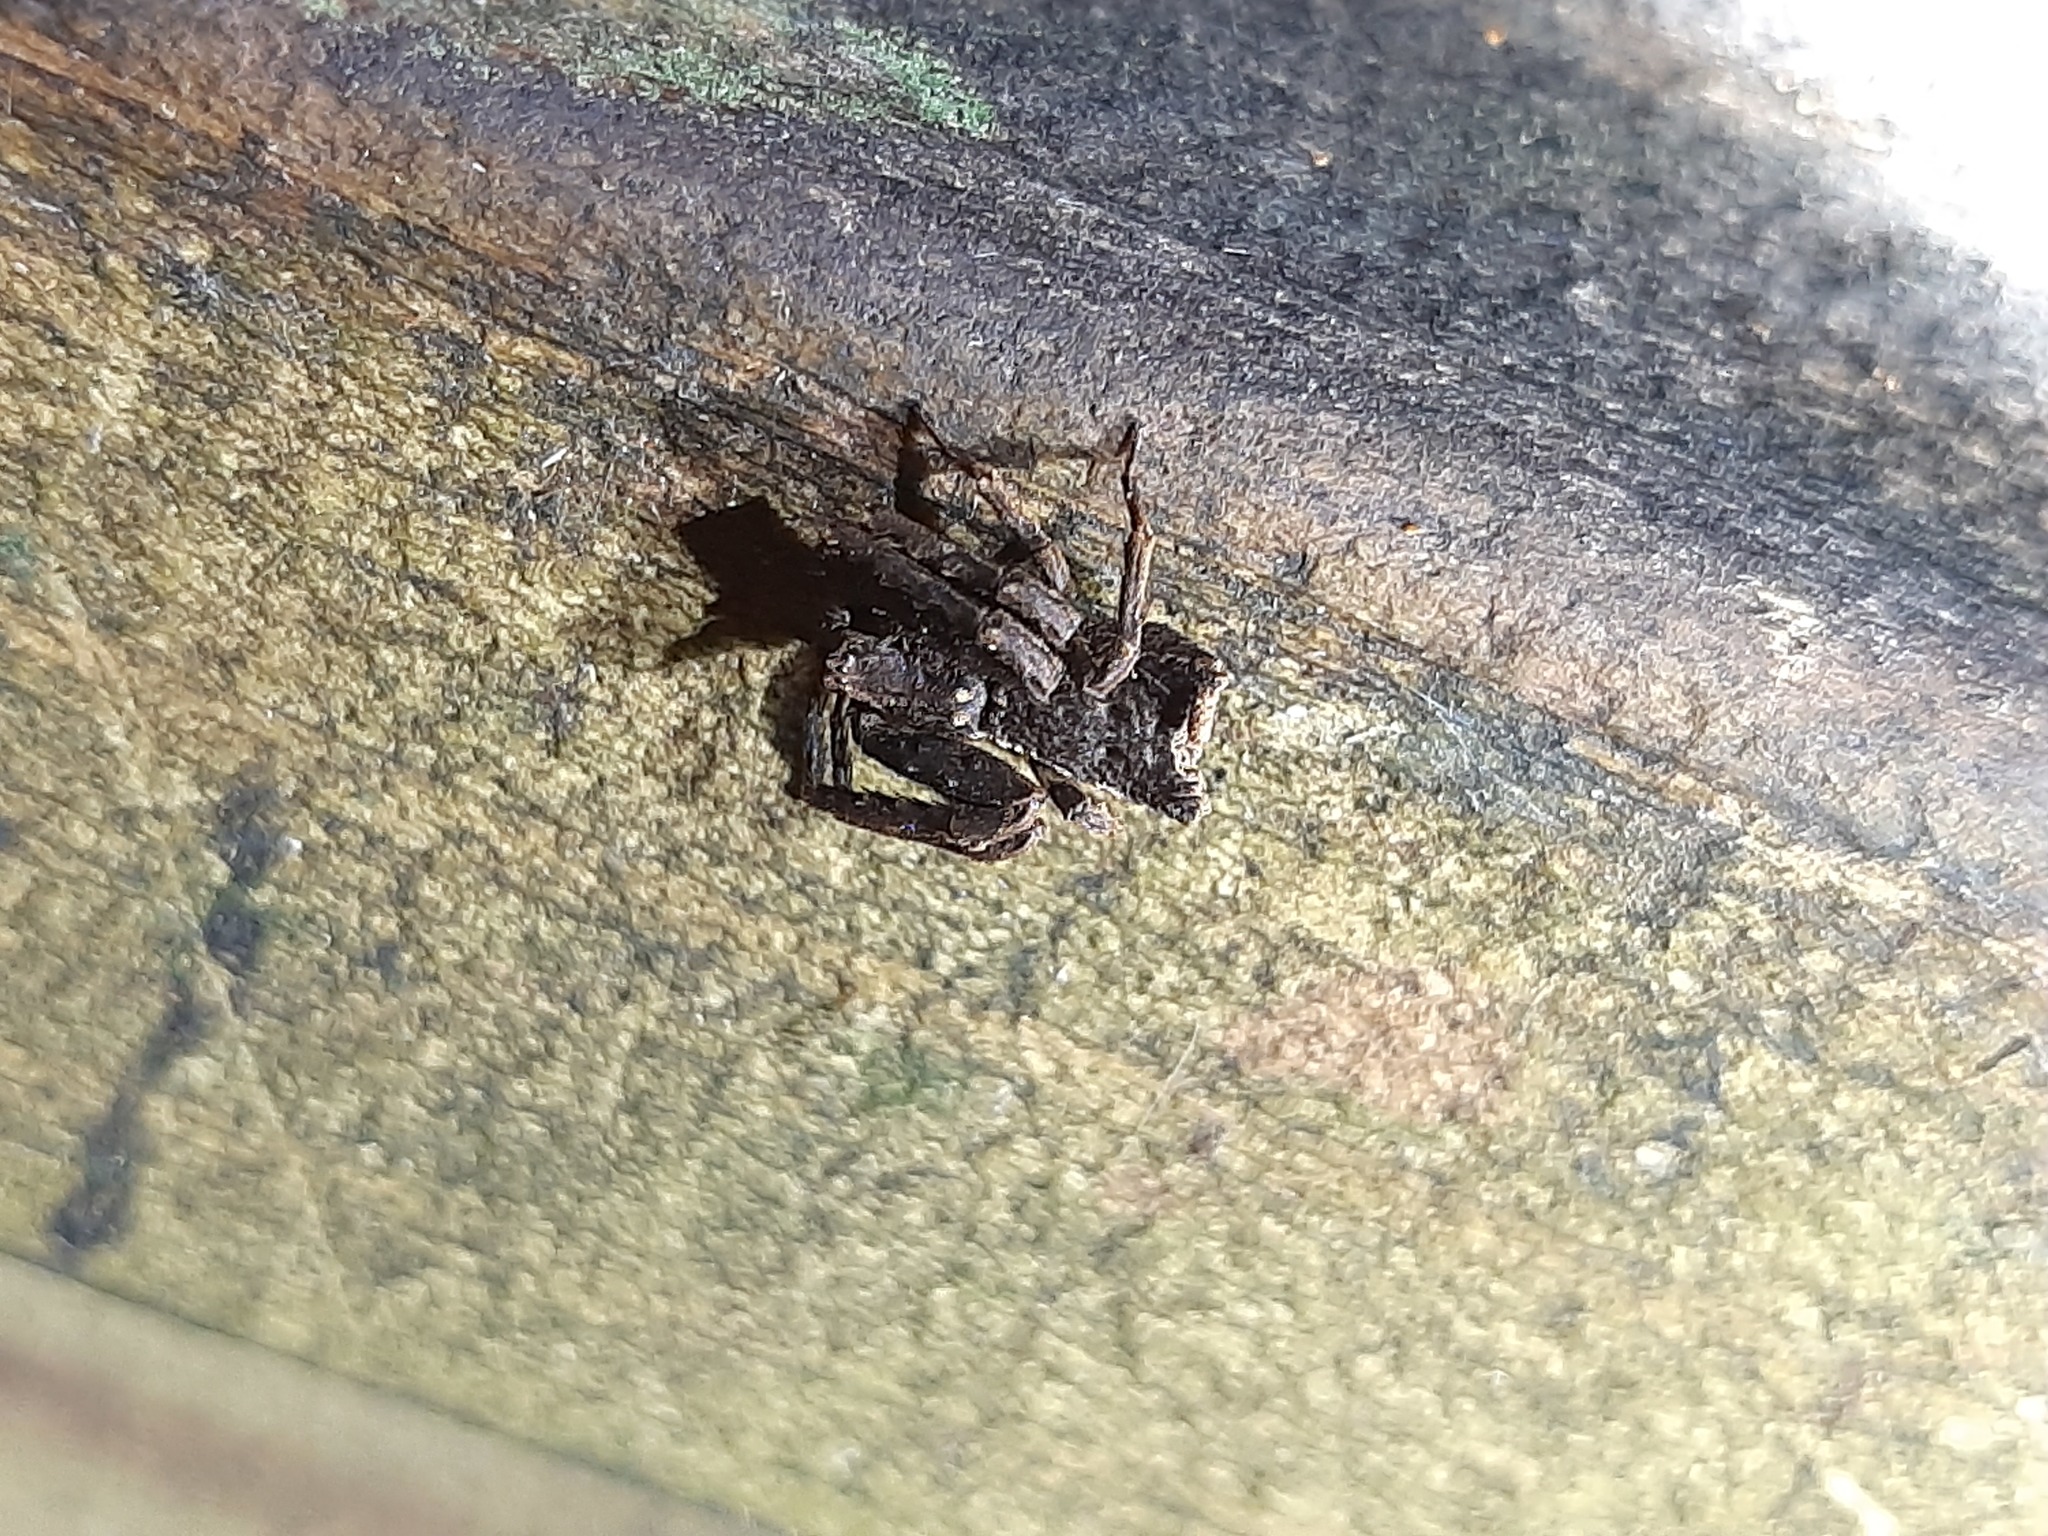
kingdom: Animalia
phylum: Arthropoda
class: Arachnida
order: Araneae
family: Thomisidae
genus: Sidymella
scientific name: Sidymella angularis
